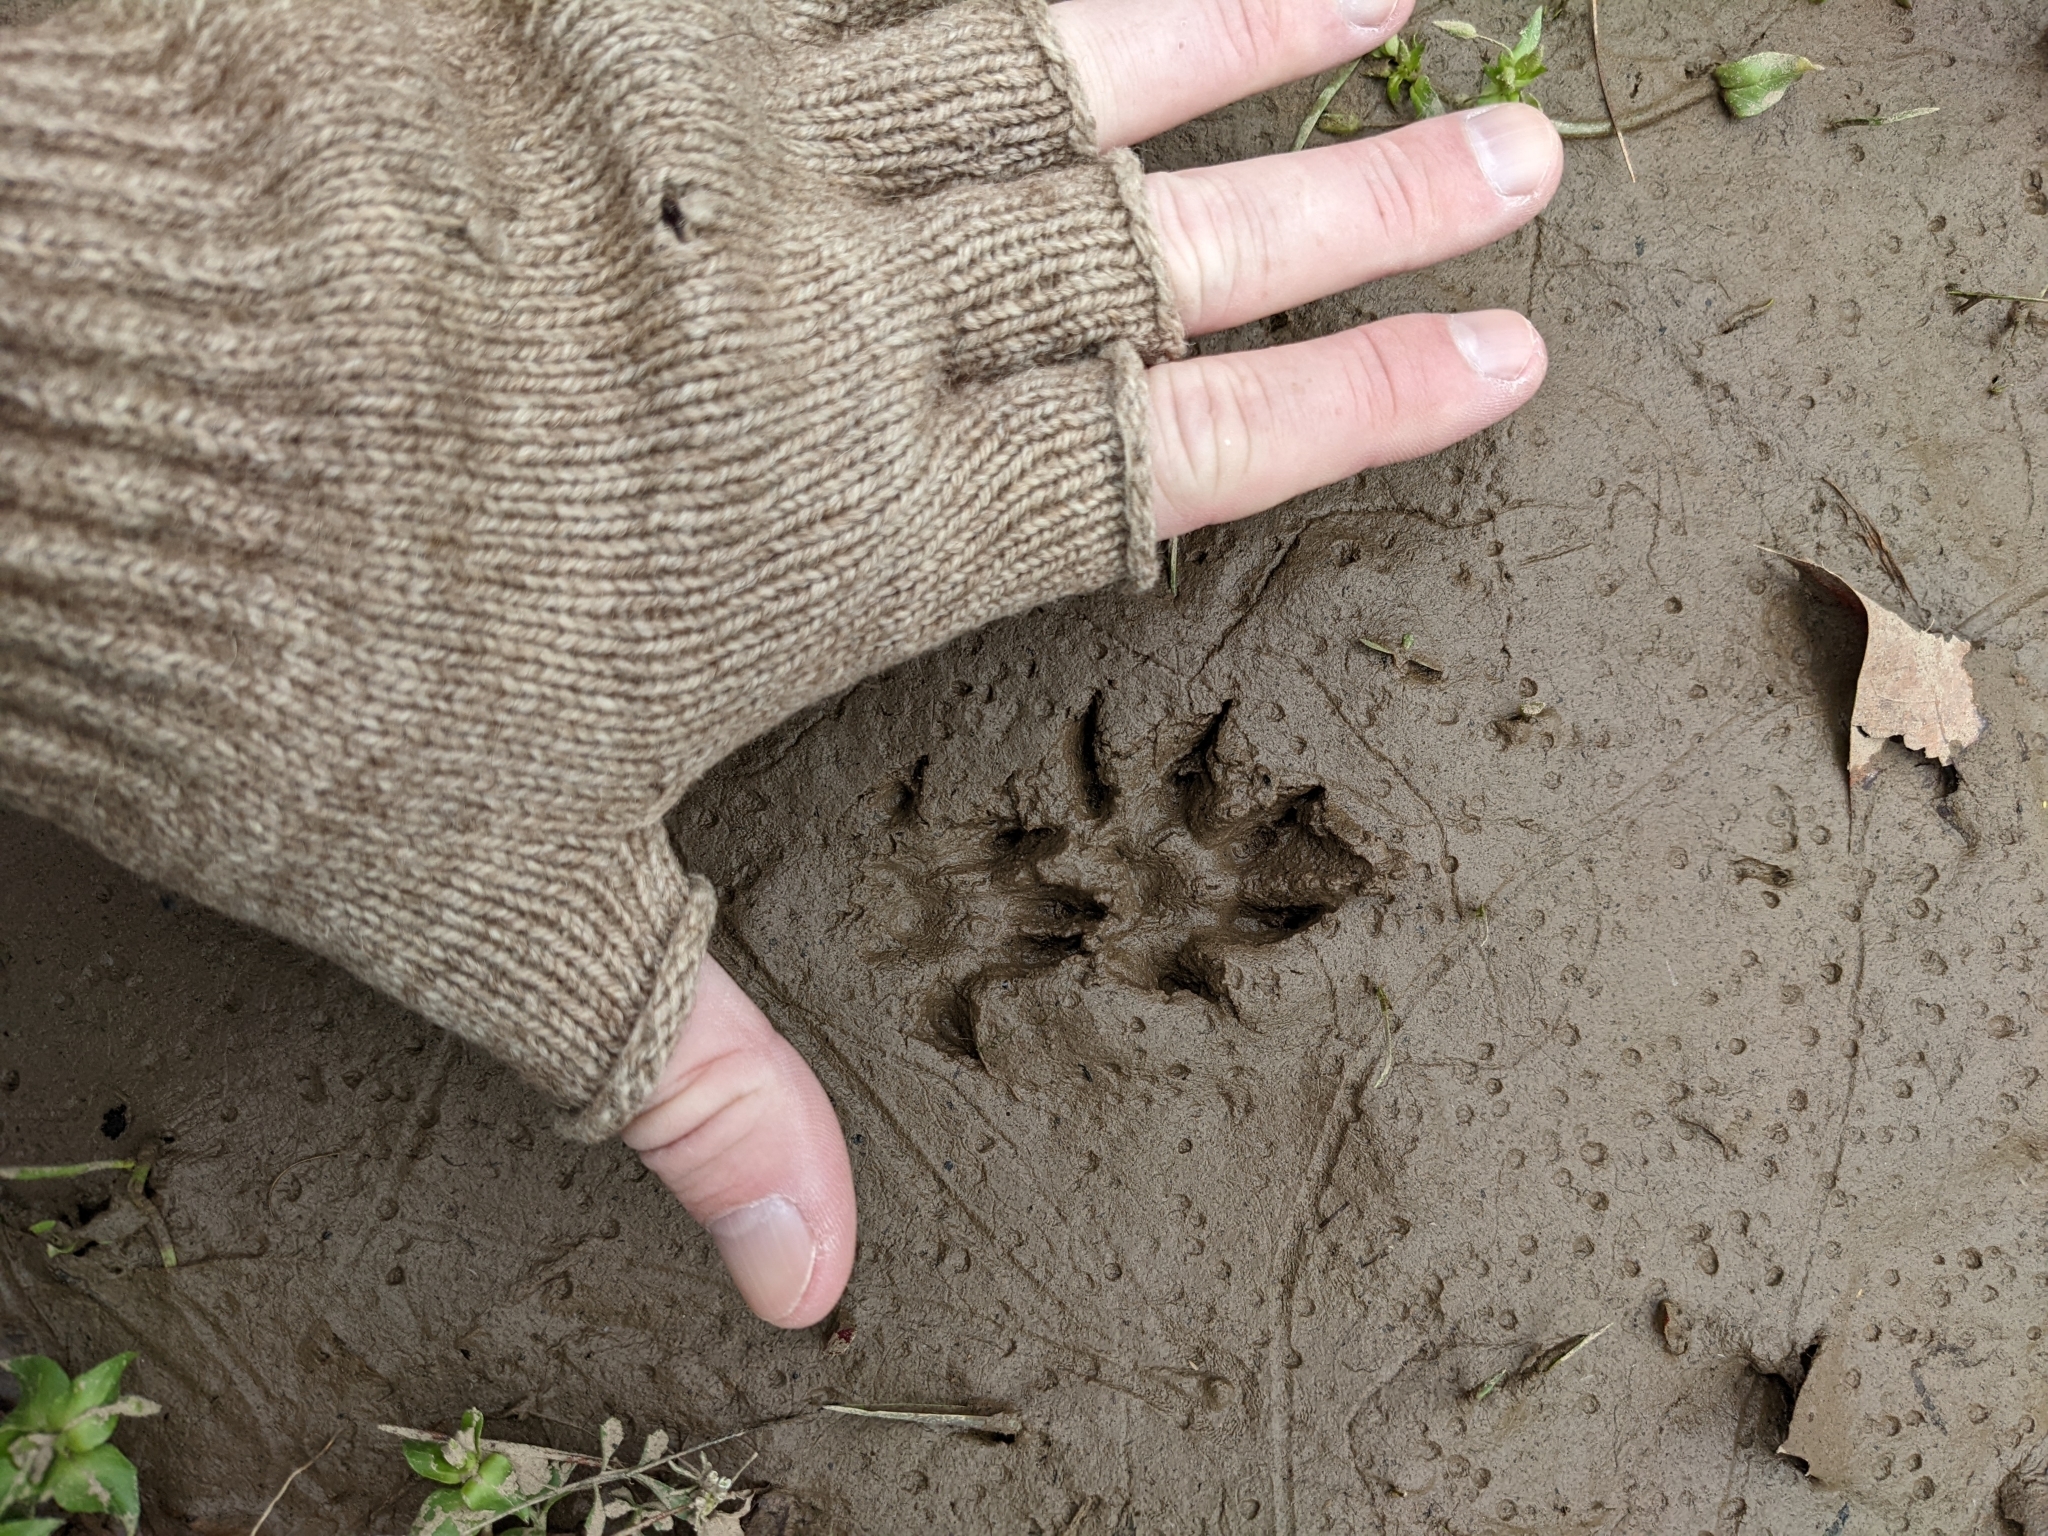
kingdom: Animalia
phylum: Chordata
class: Mammalia
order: Carnivora
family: Mustelidae
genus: Mustela
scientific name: Mustela
